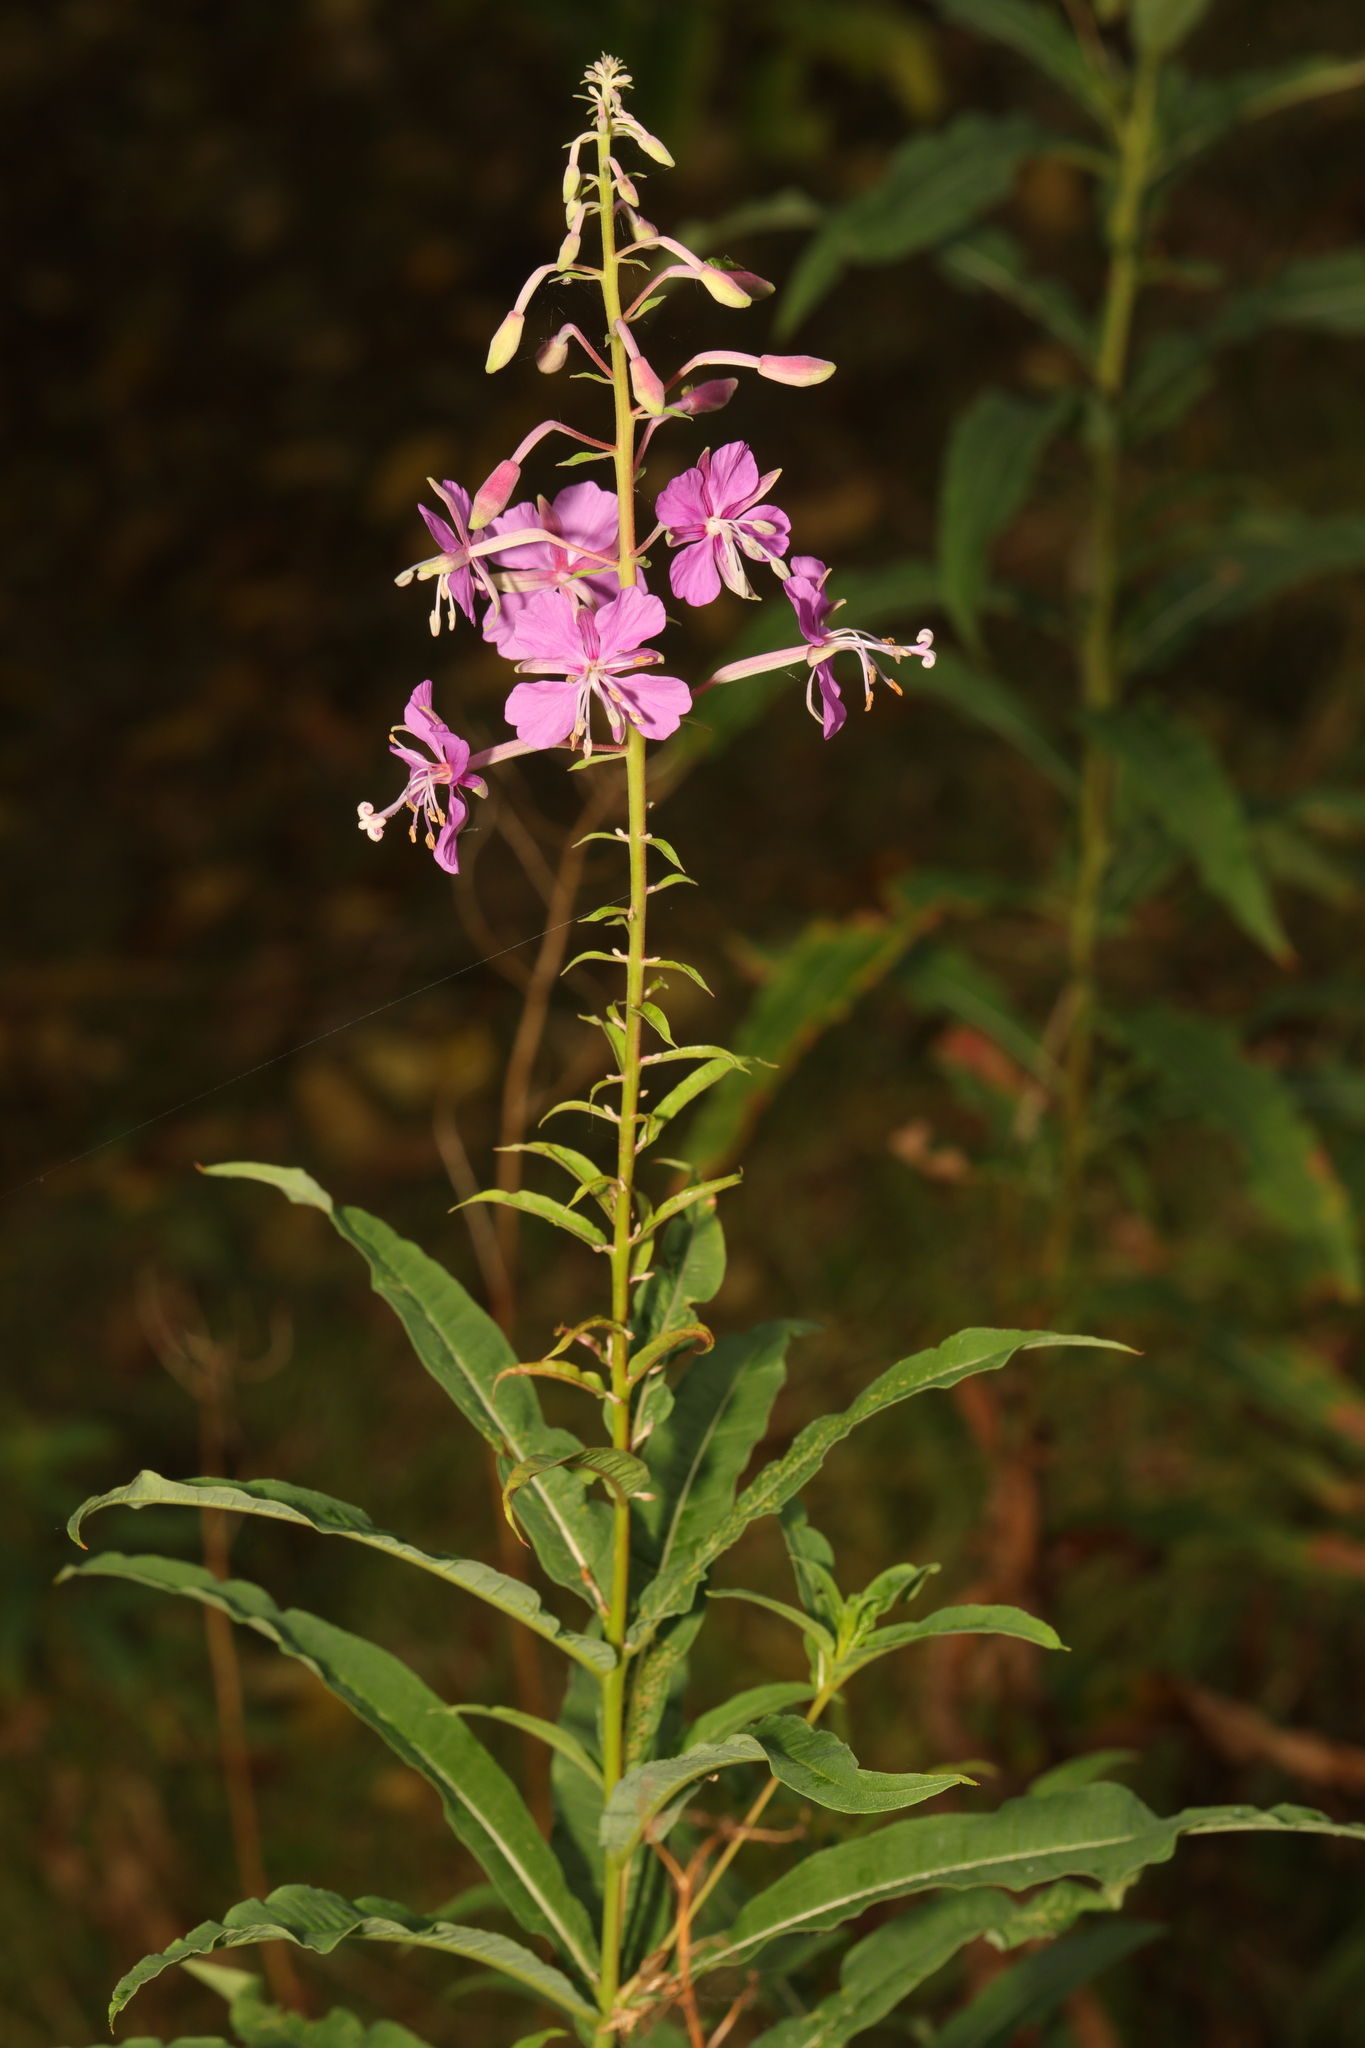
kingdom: Plantae
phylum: Tracheophyta
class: Magnoliopsida
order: Myrtales
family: Onagraceae
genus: Chamaenerion
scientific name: Chamaenerion angustifolium
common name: Fireweed
